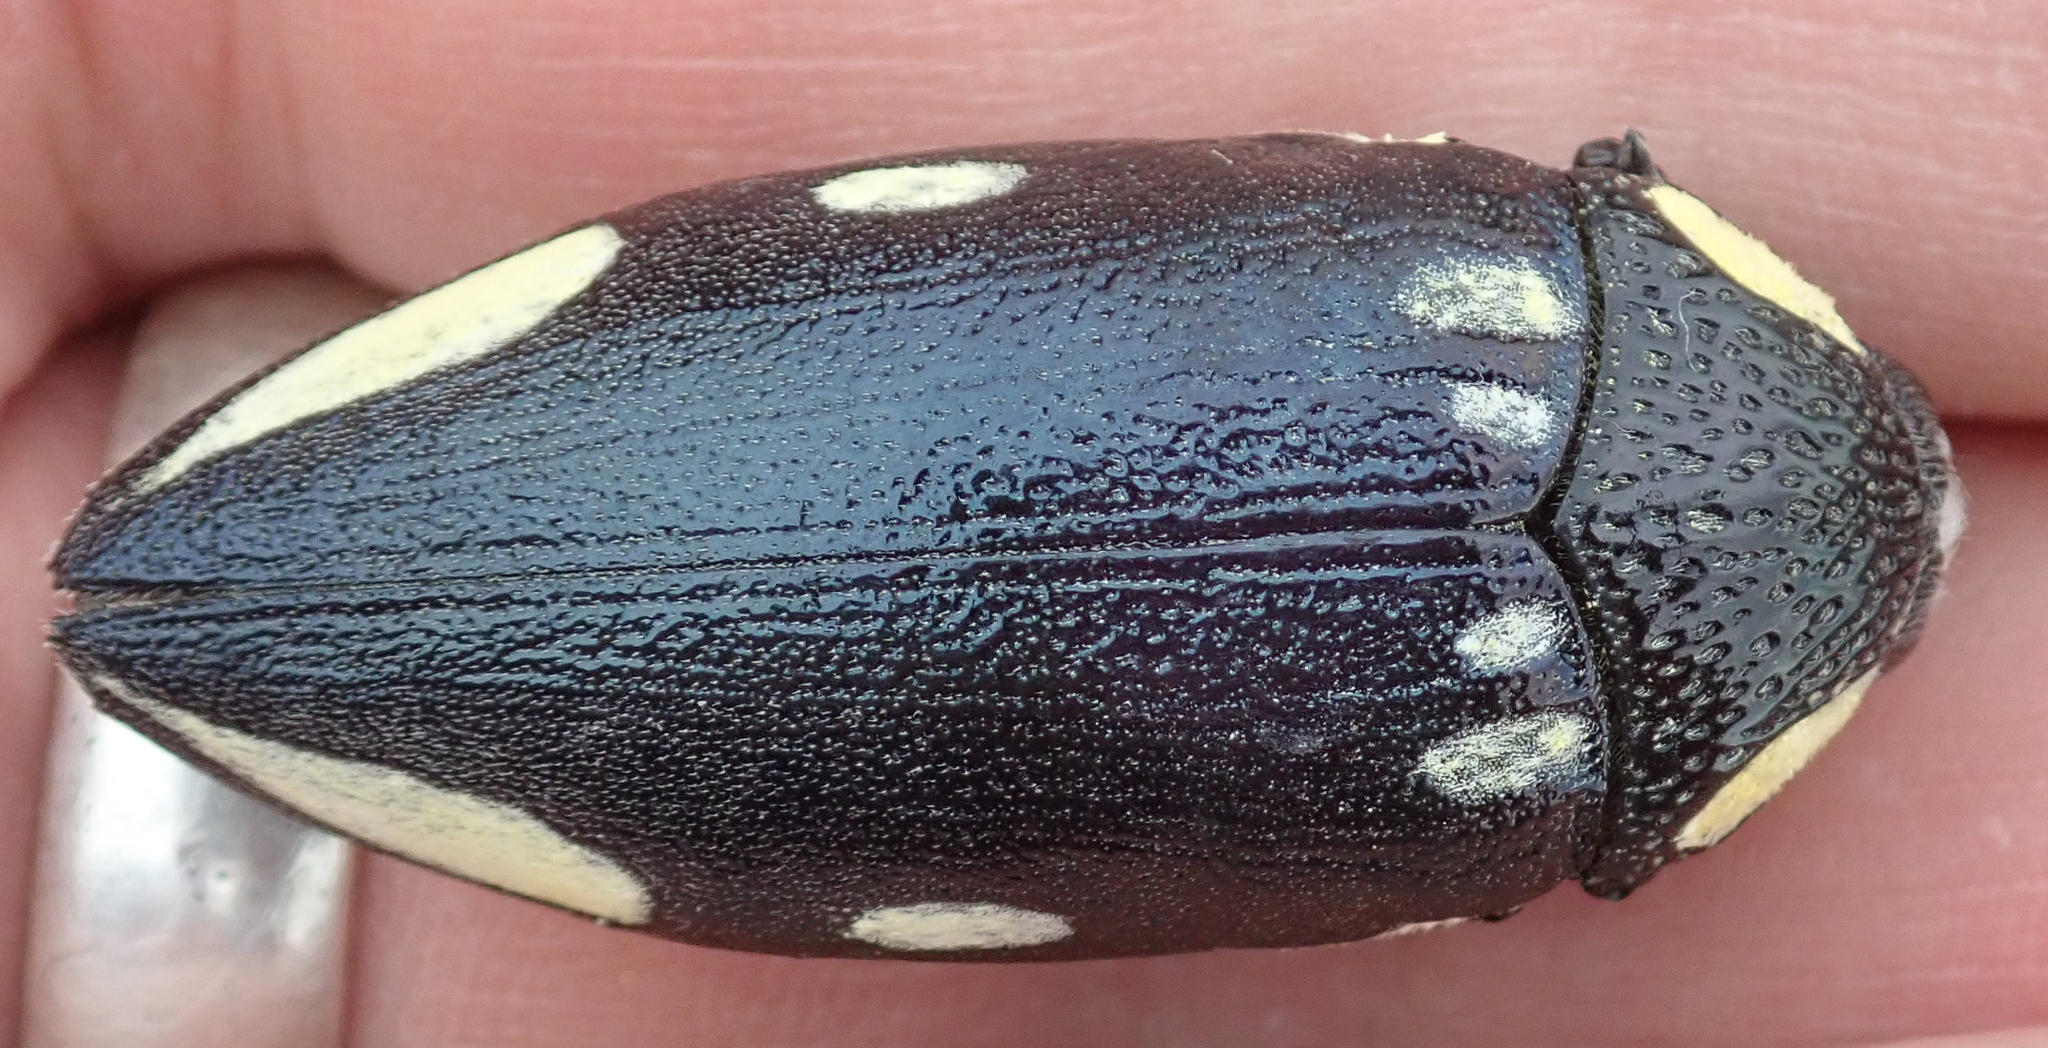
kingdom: Animalia
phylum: Arthropoda
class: Insecta
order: Coleoptera
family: Buprestidae
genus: Sternocera
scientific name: Sternocera orissa
